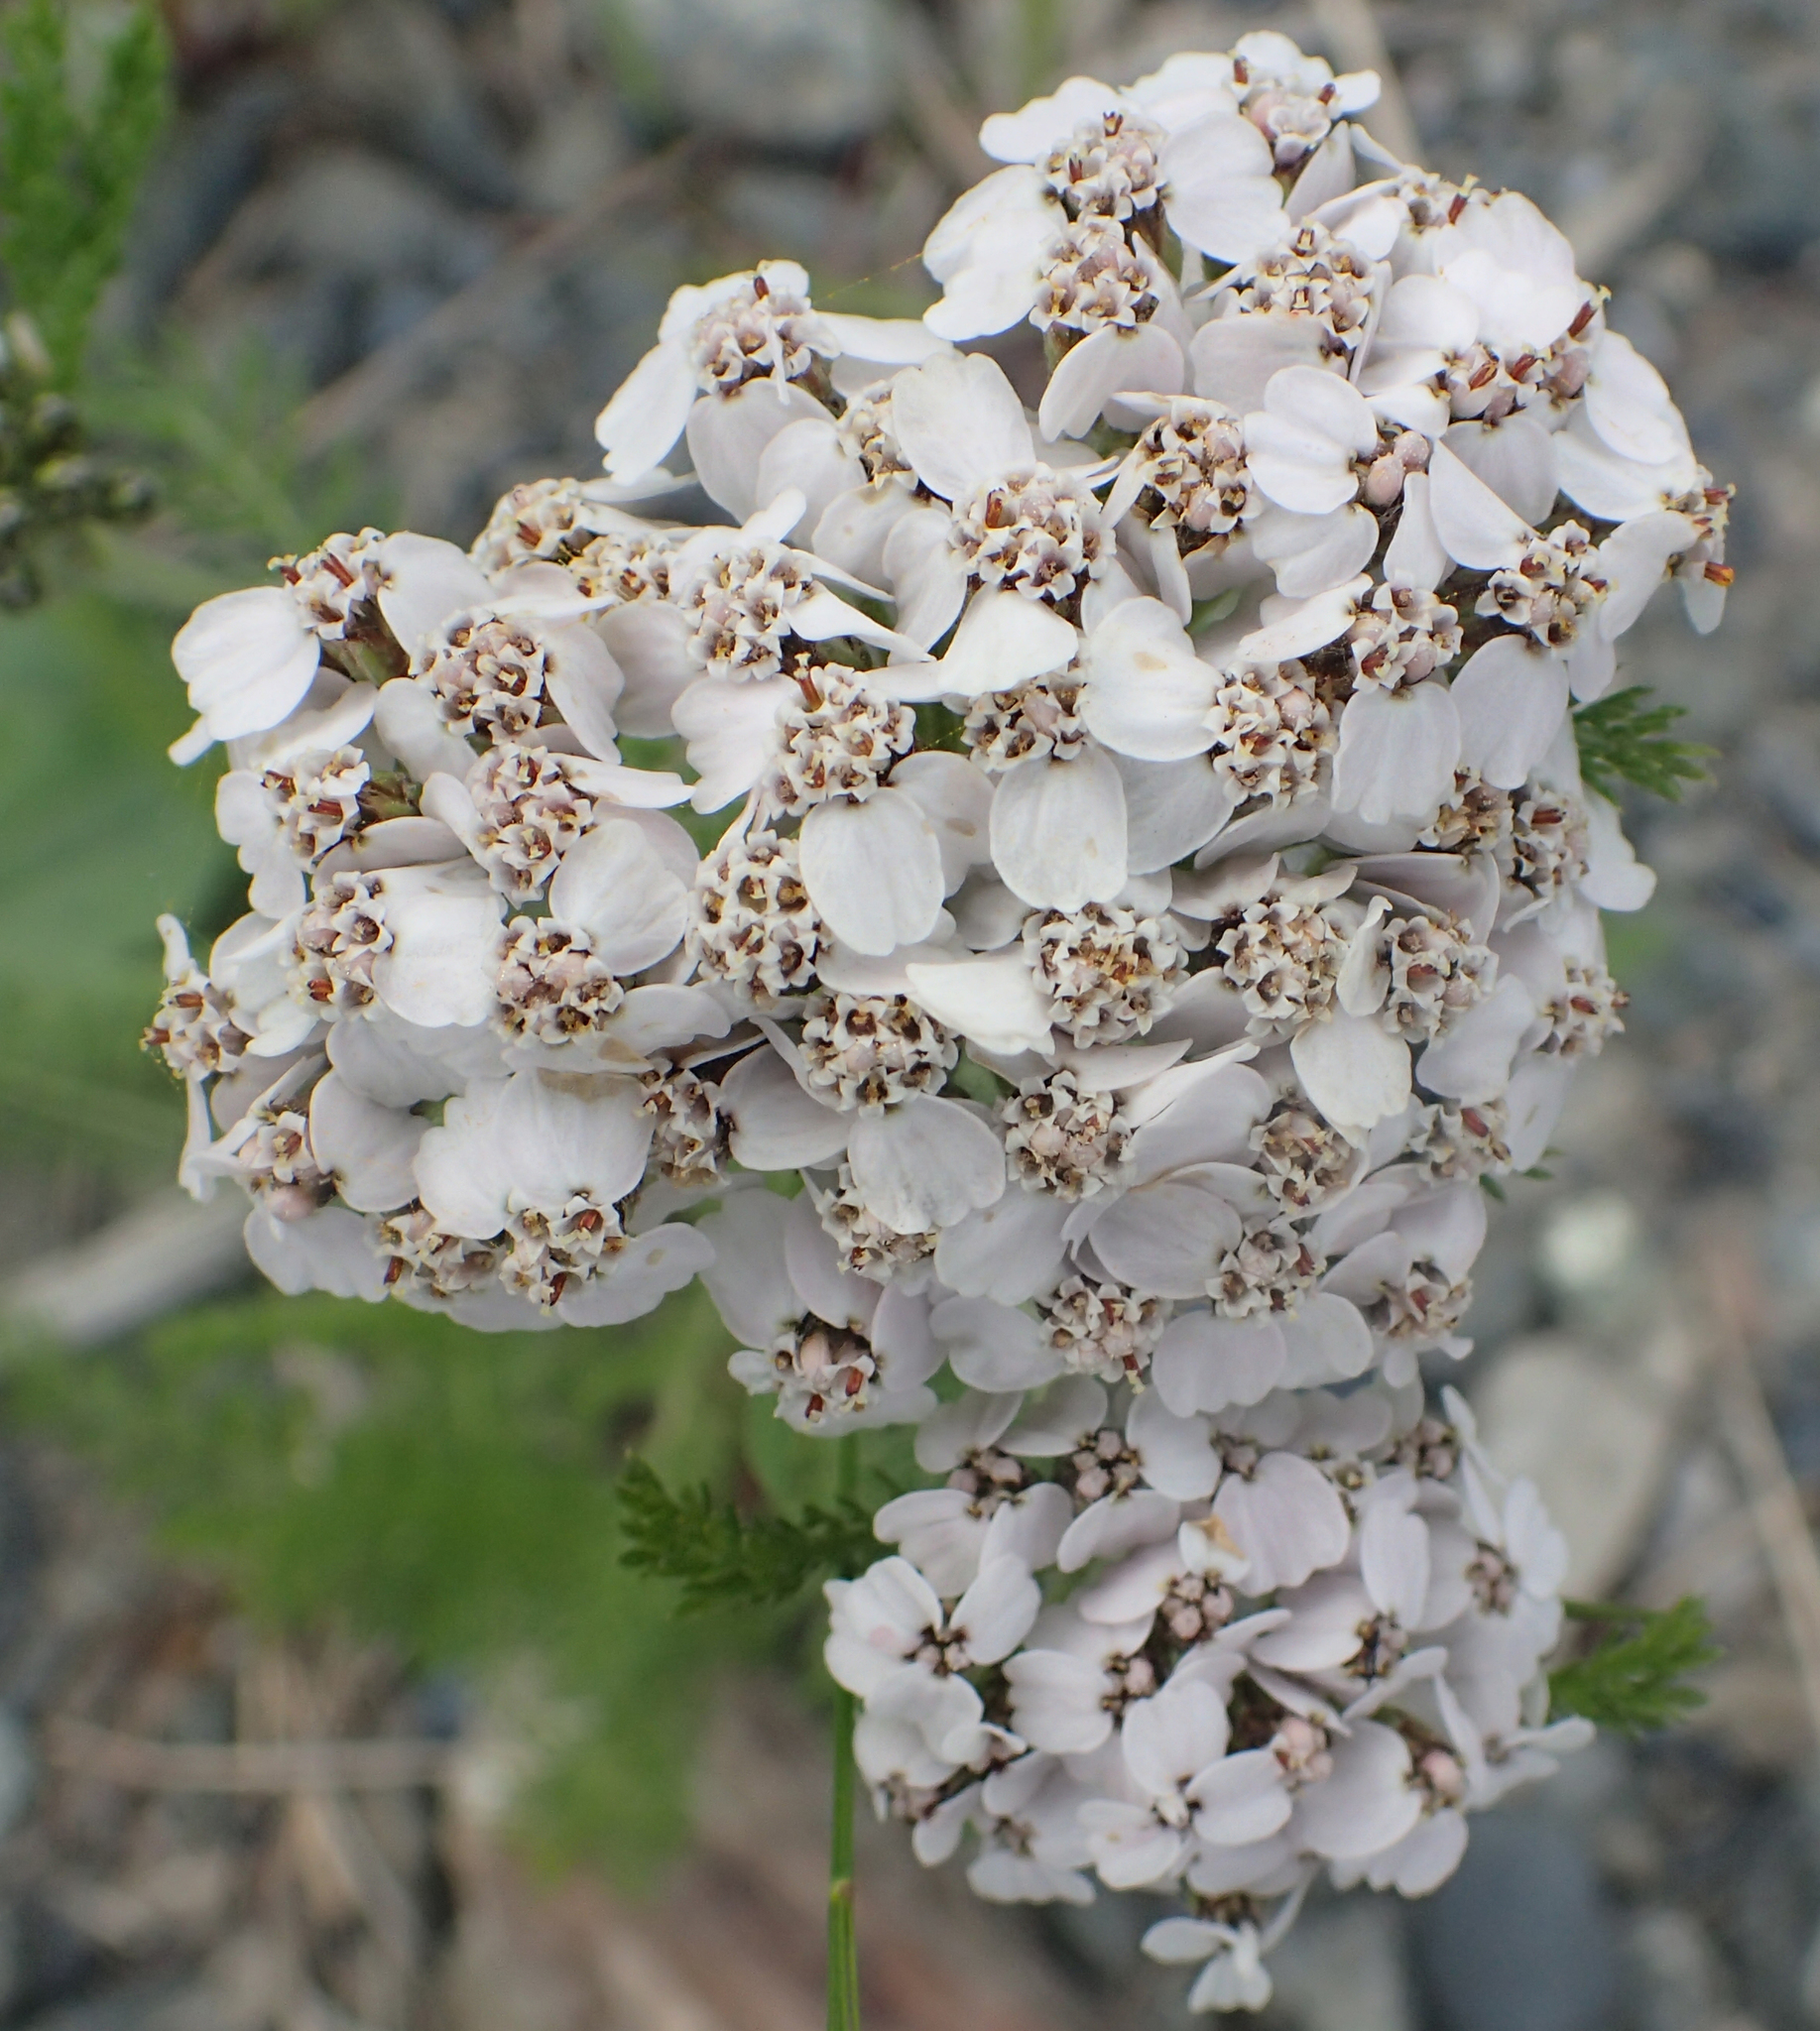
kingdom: Plantae
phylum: Tracheophyta
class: Magnoliopsida
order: Asterales
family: Asteraceae
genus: Achillea
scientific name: Achillea millefolium
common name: Yarrow
